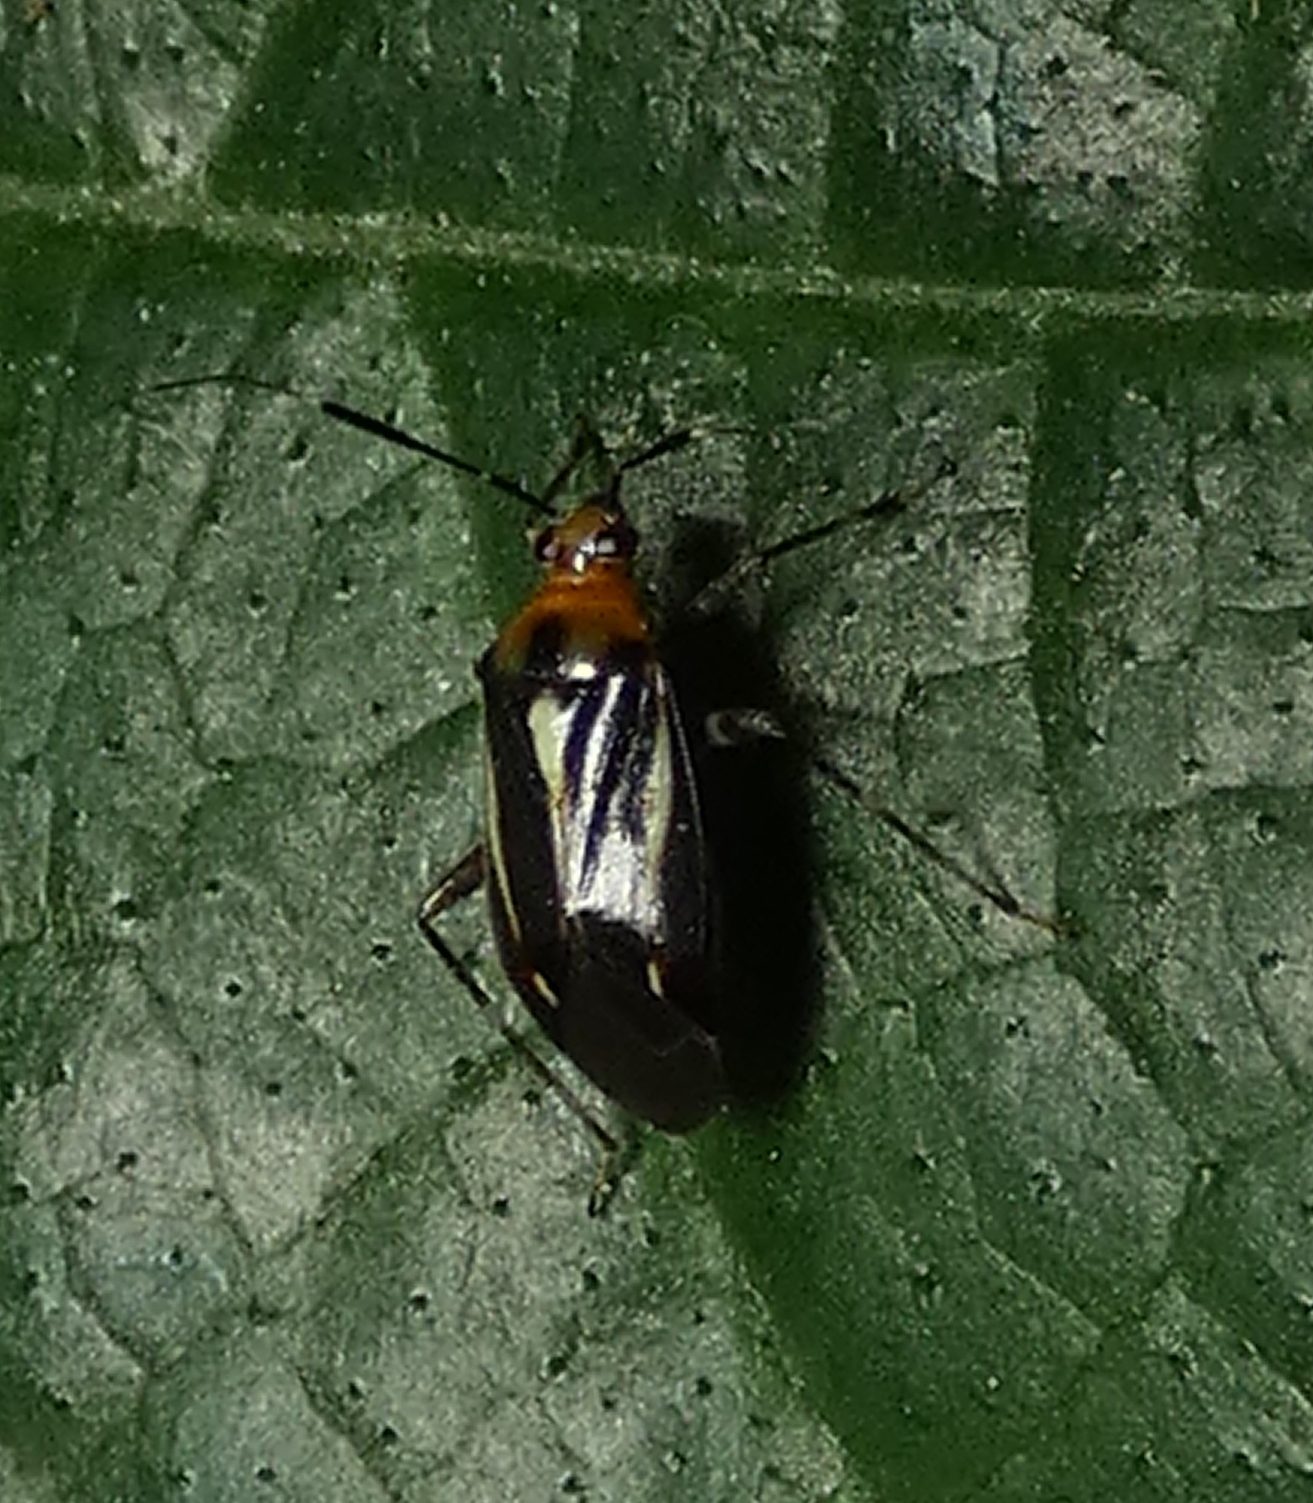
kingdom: Animalia
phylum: Arthropoda
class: Insecta
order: Hemiptera
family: Miridae
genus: Horciasinus
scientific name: Horciasinus signoreti
